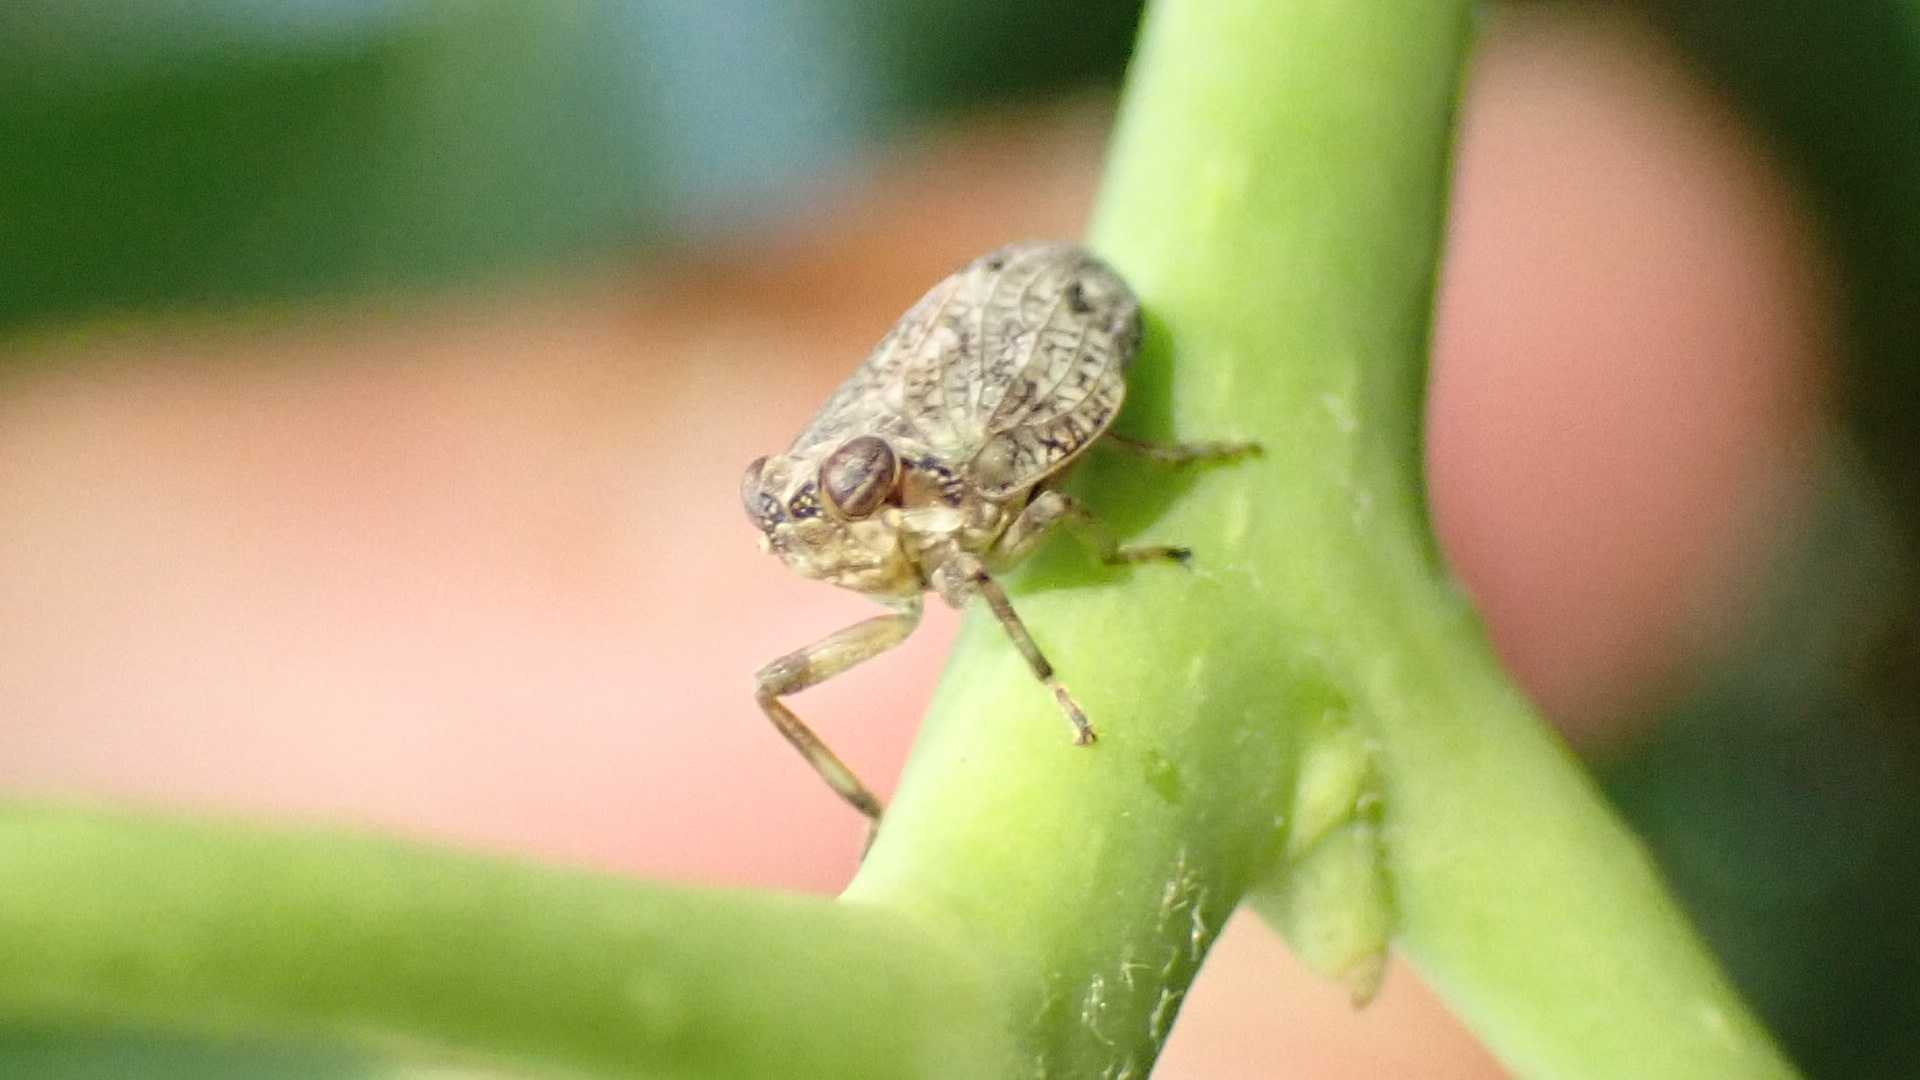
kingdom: Animalia
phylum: Arthropoda
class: Insecta
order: Hemiptera
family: Issidae
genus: Issus
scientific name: Issus coleoptratus
